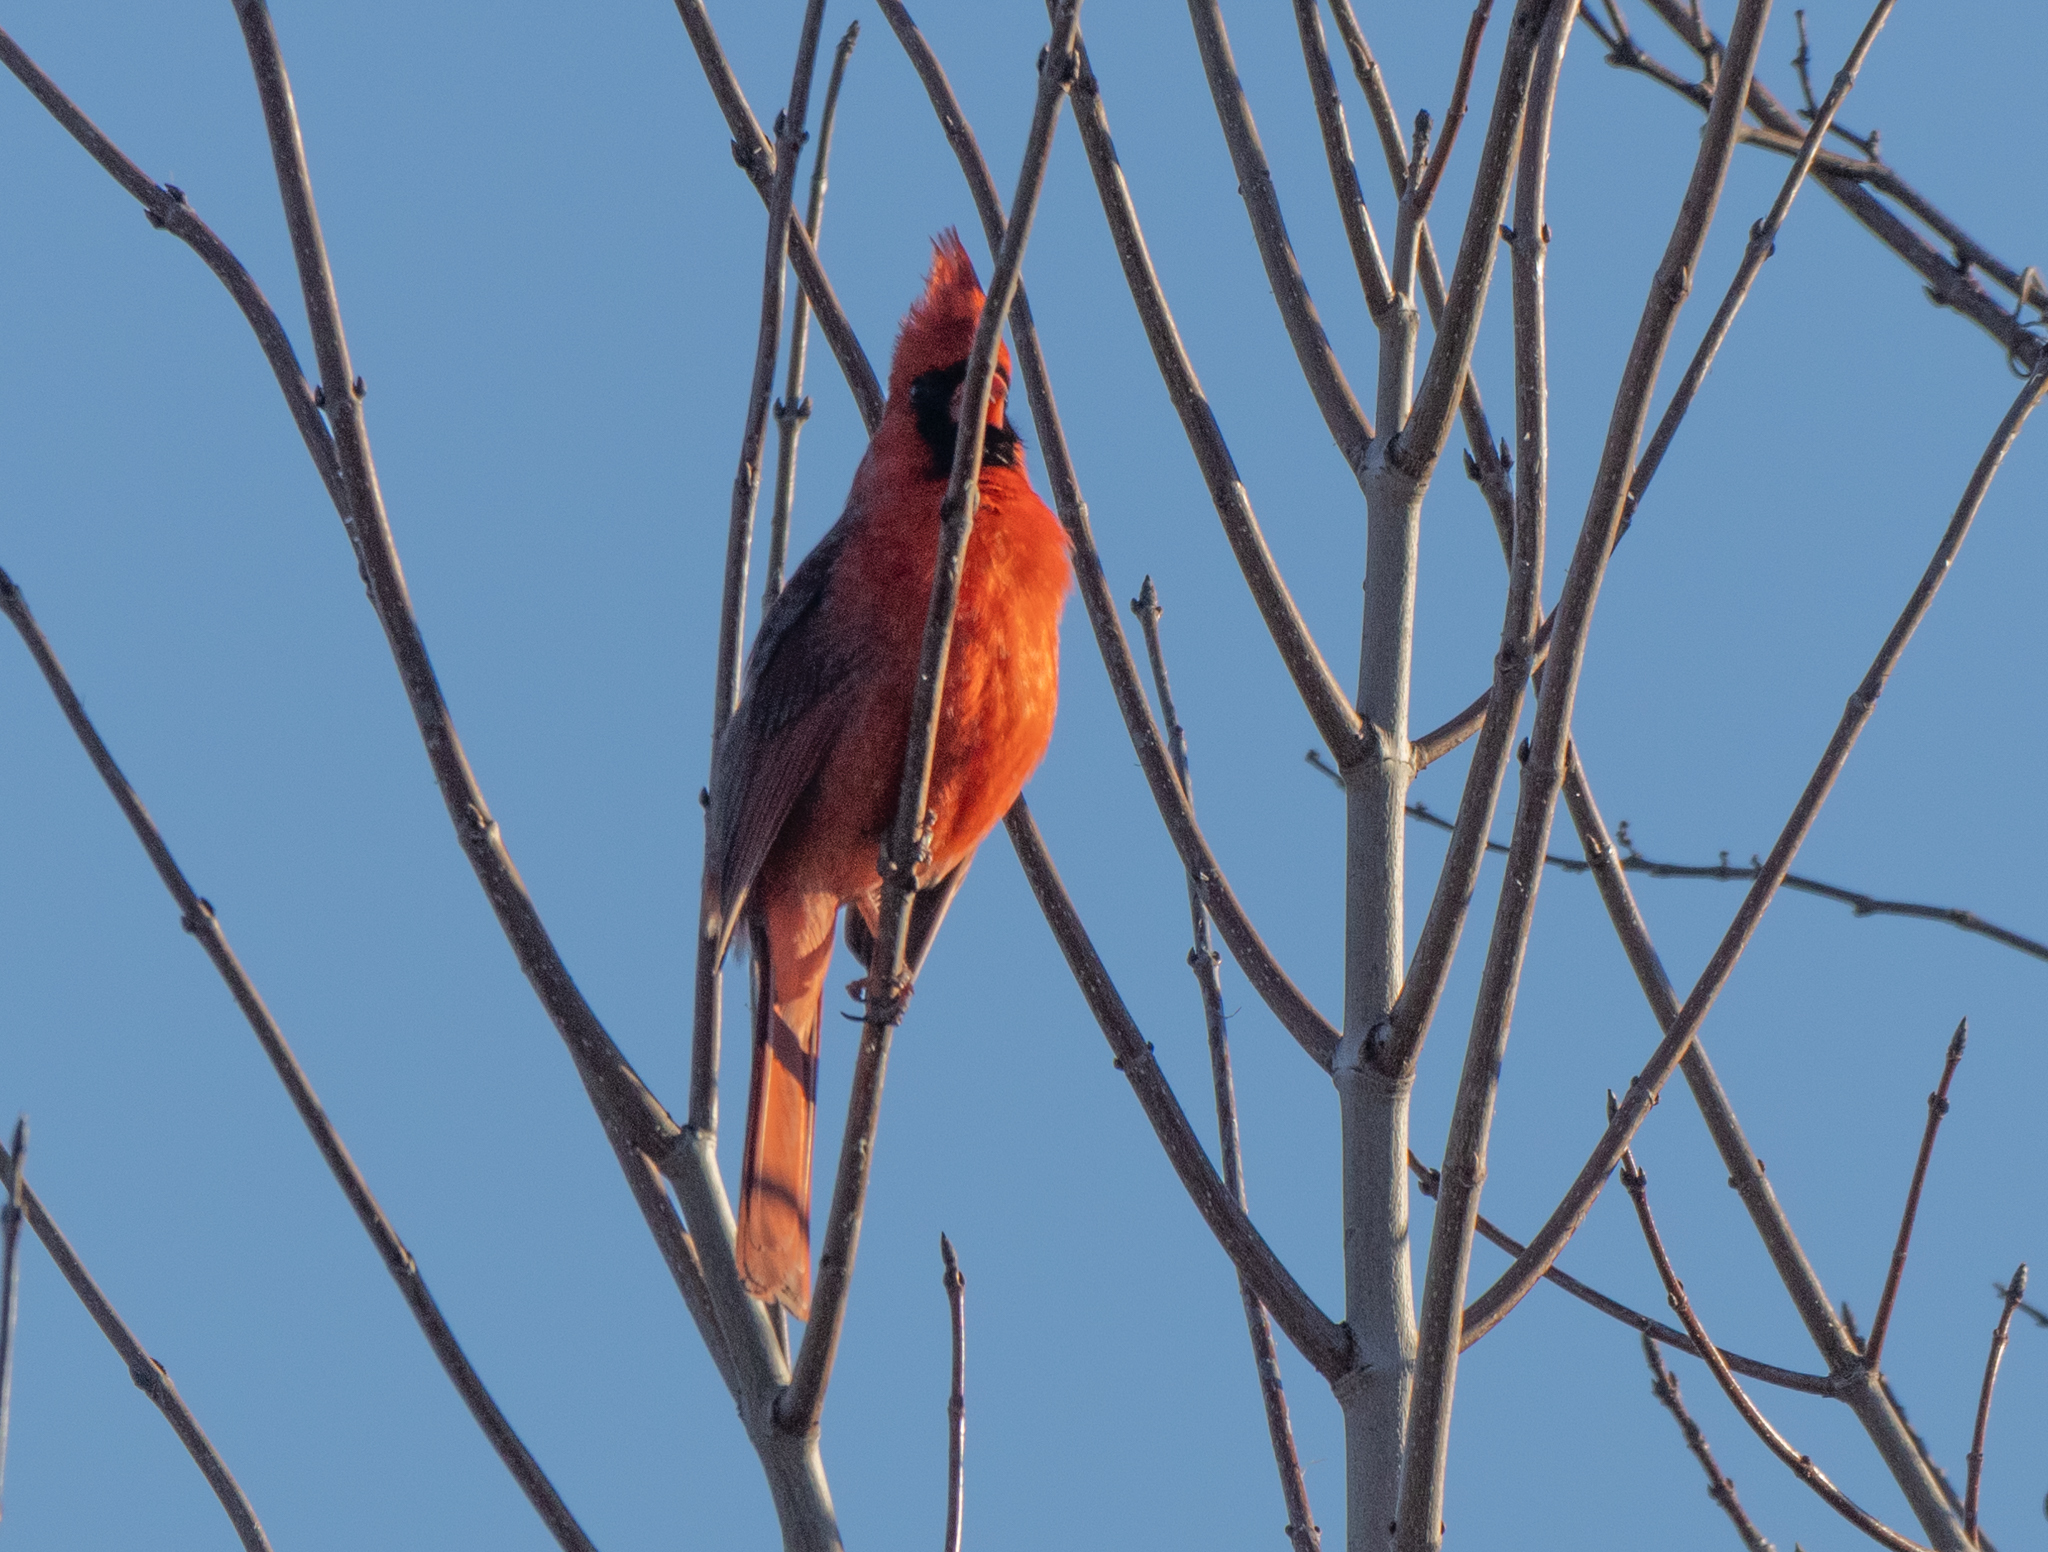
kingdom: Animalia
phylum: Chordata
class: Aves
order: Passeriformes
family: Cardinalidae
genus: Cardinalis
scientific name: Cardinalis cardinalis
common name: Northern cardinal
